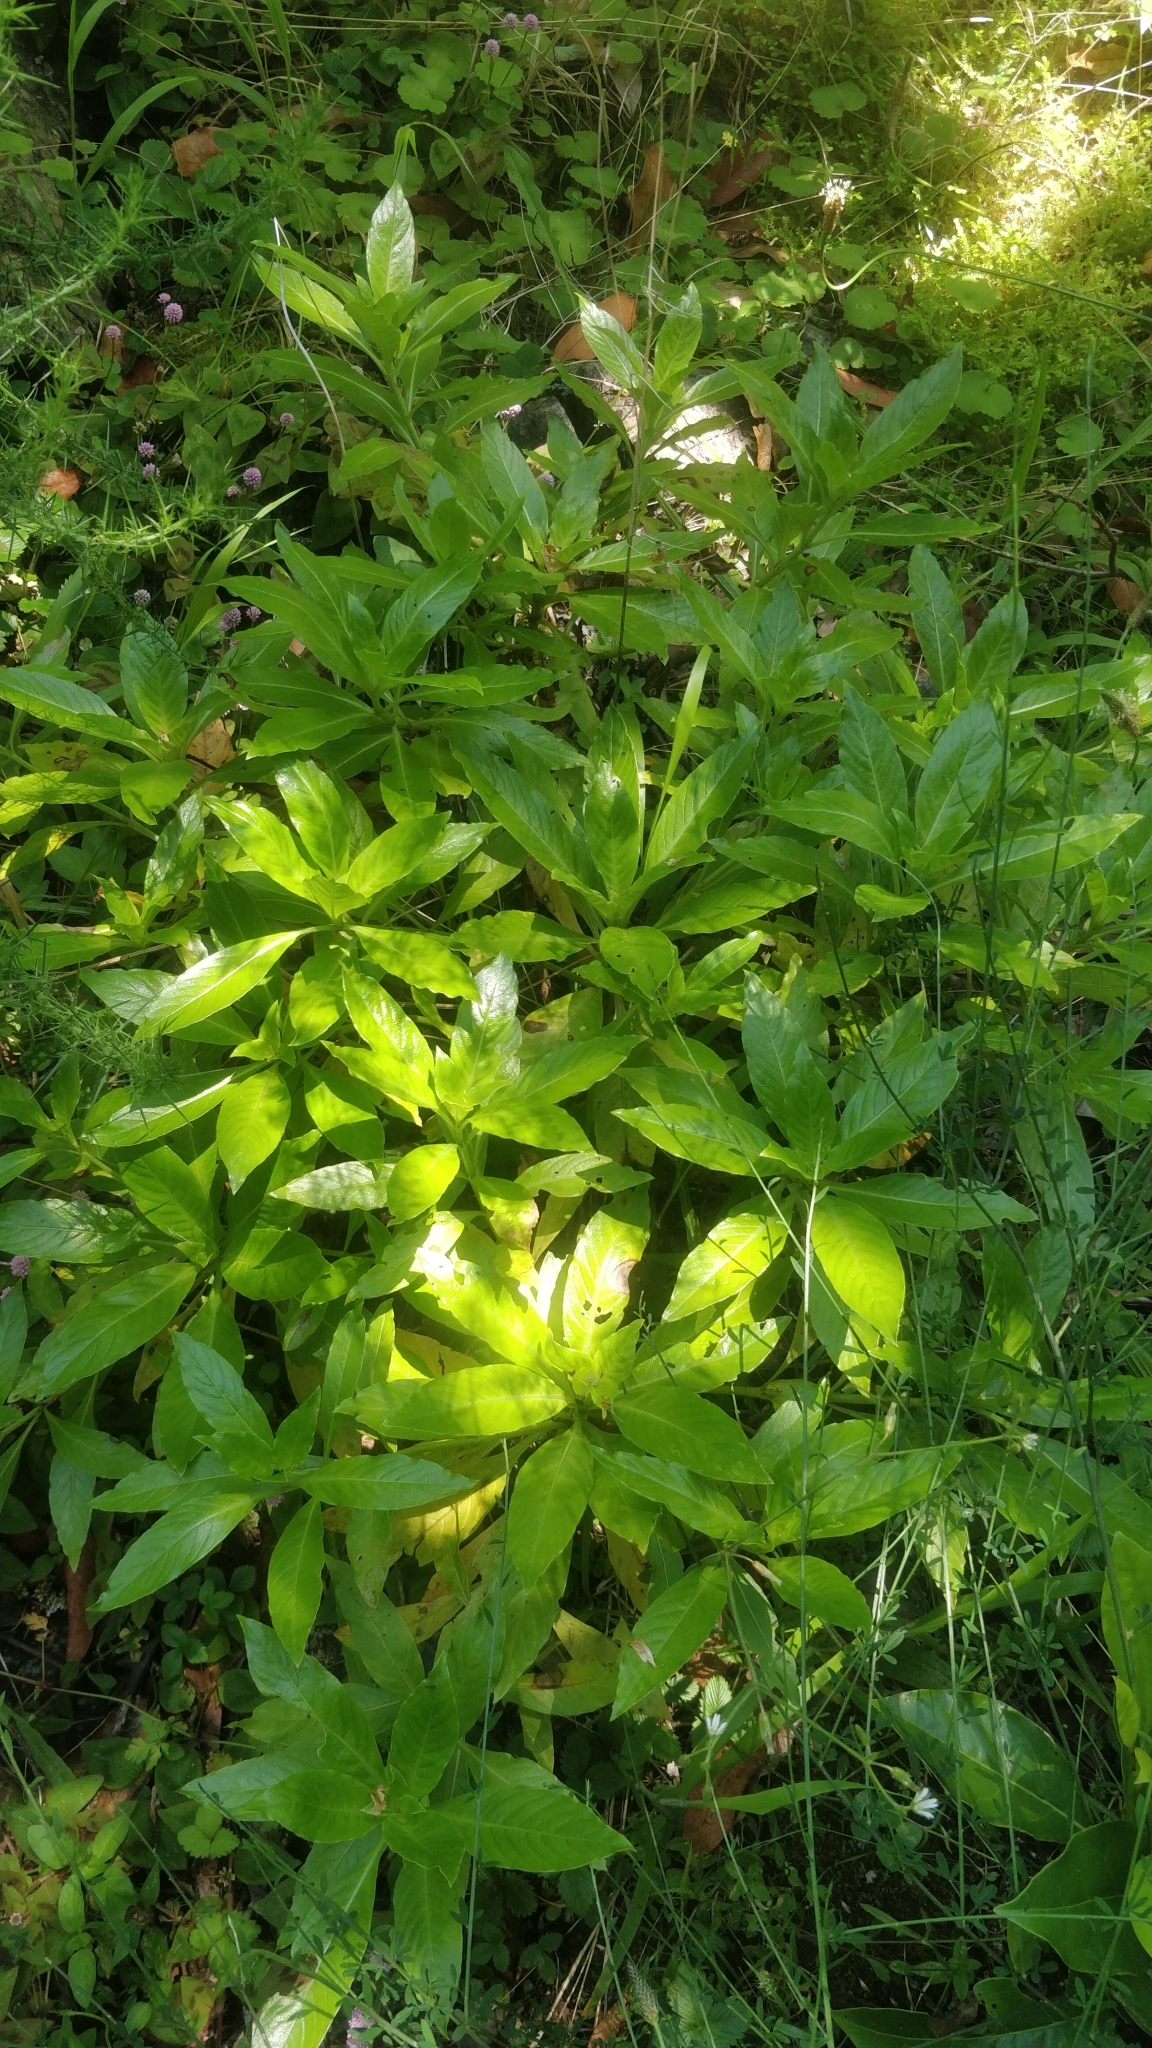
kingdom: Plantae
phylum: Tracheophyta
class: Magnoliopsida
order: Gentianales
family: Rubiaceae
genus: Phyllis
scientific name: Phyllis nobla
